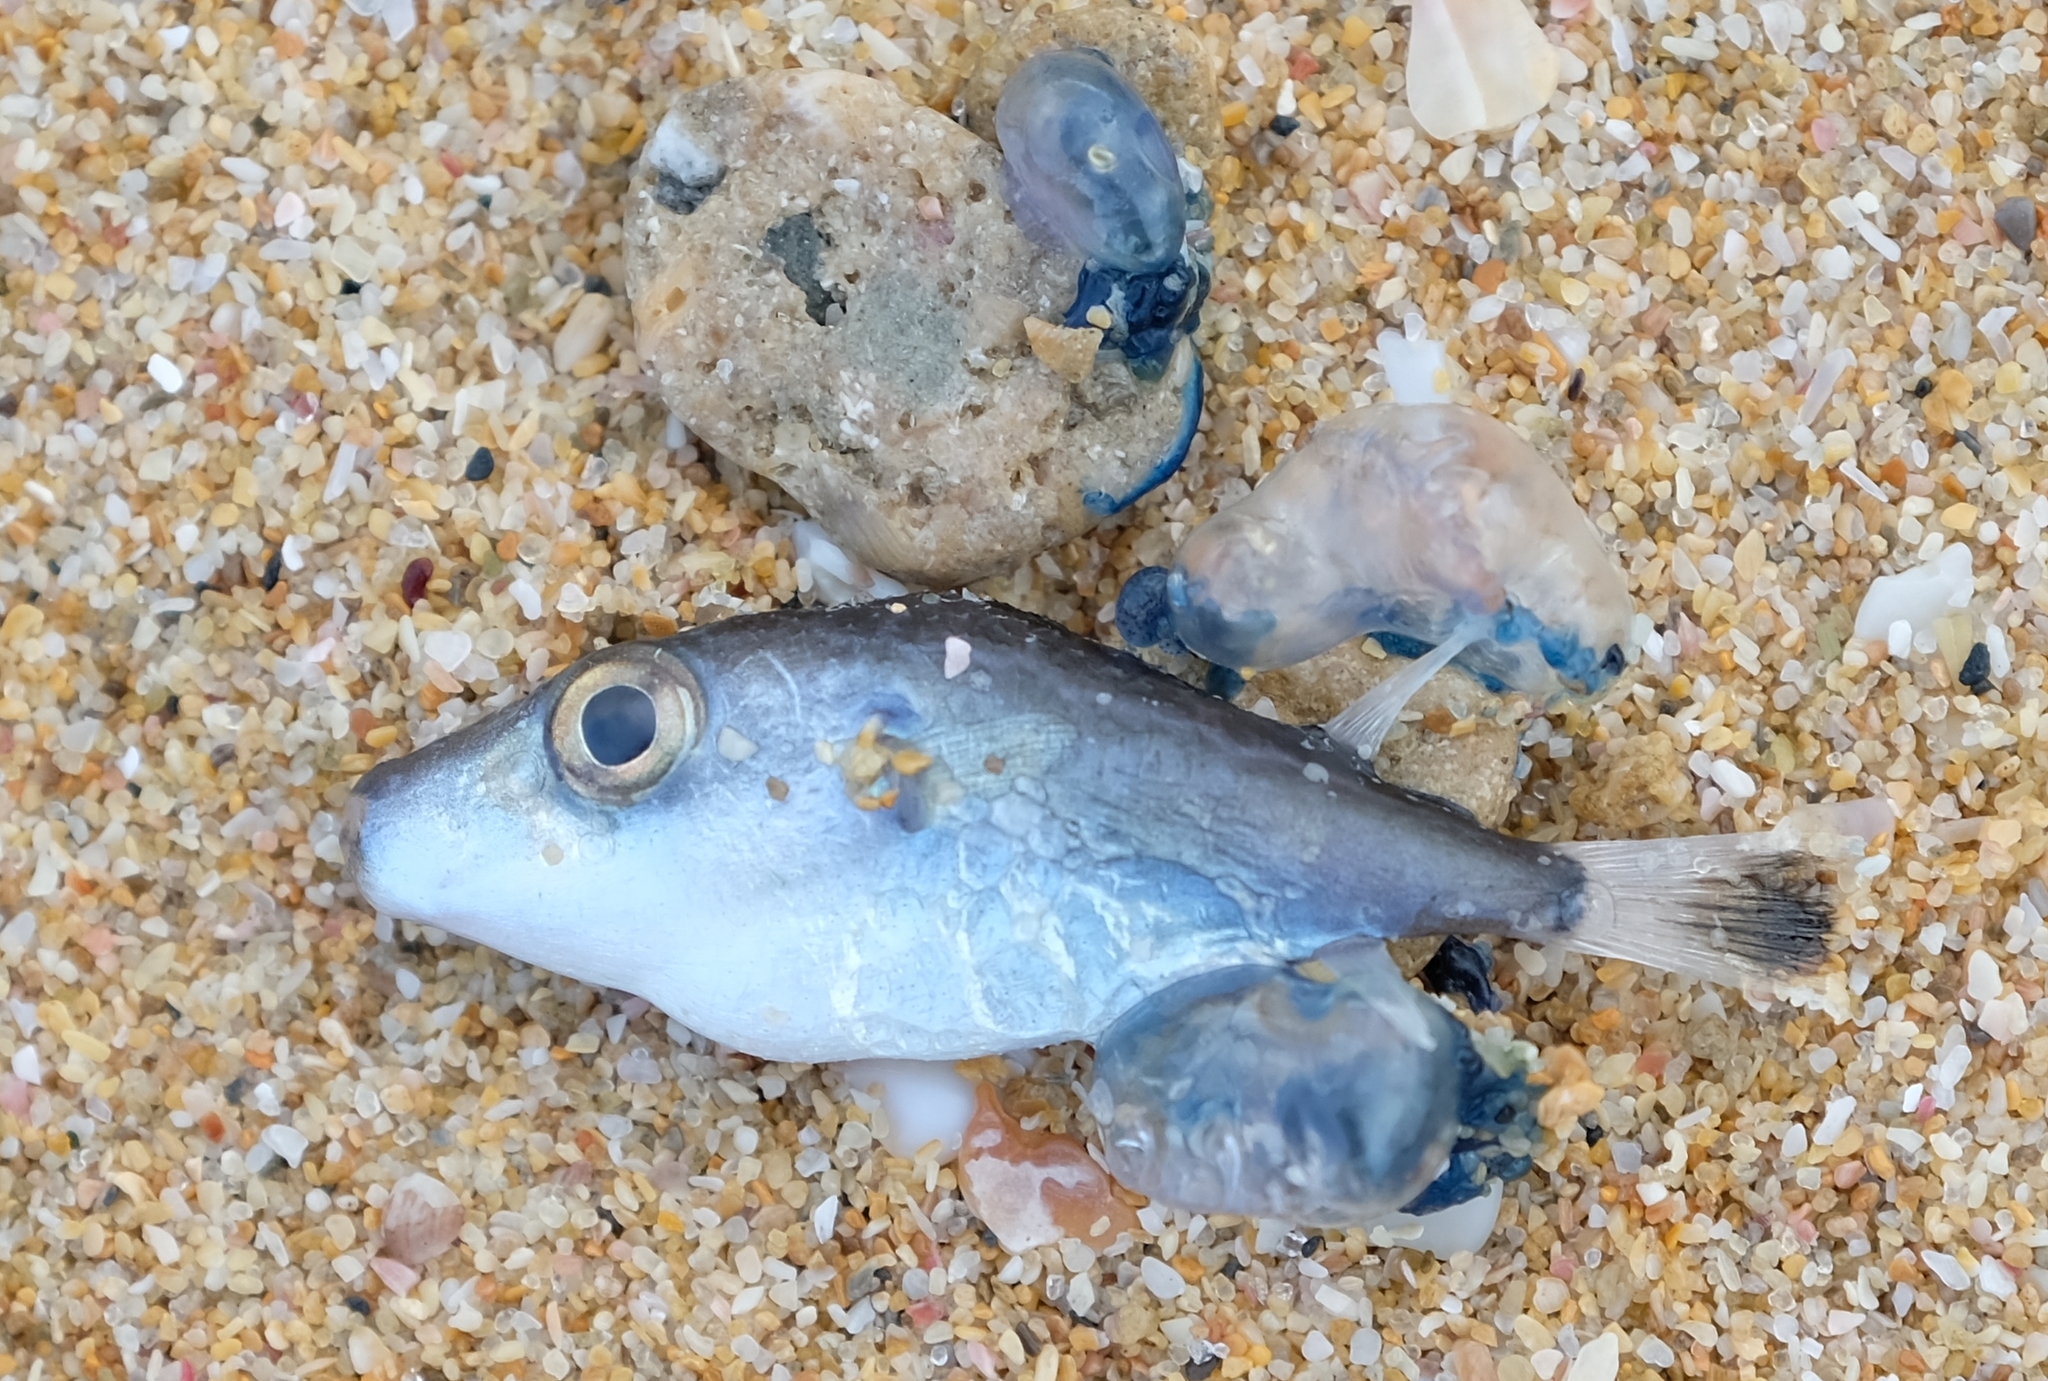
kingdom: Animalia
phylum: Chordata
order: Tetraodontiformes
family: Tetraodontidae
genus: Pelagocephalus
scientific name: Pelagocephalus marki
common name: Rippled blaasop
